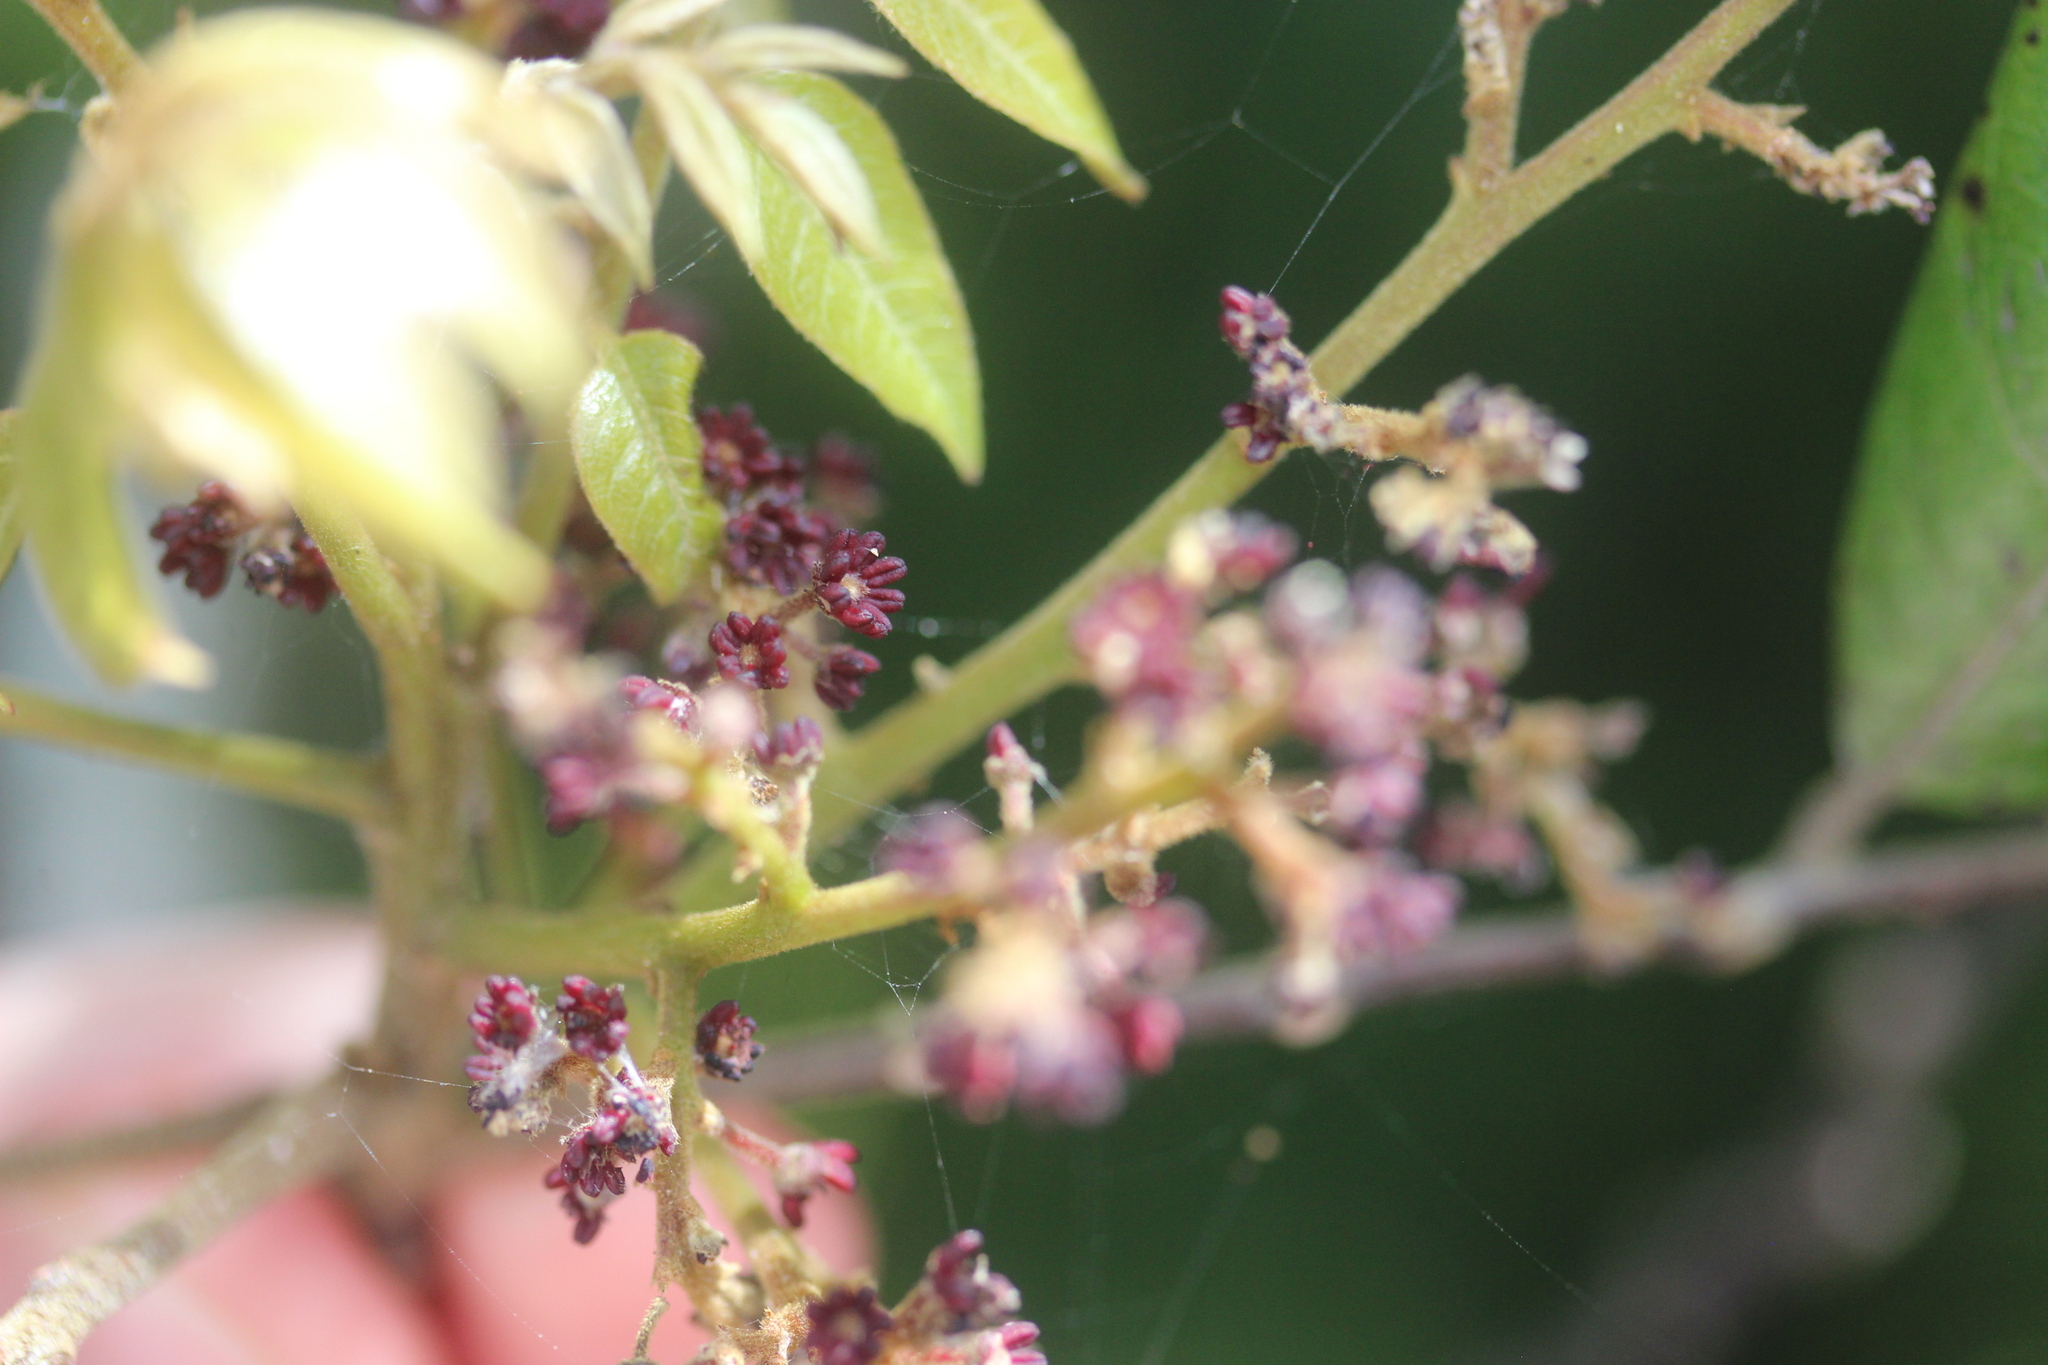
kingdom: Plantae
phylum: Tracheophyta
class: Magnoliopsida
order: Sapindales
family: Sapindaceae
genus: Alectryon
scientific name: Alectryon excelsus
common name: Three kings titoki
